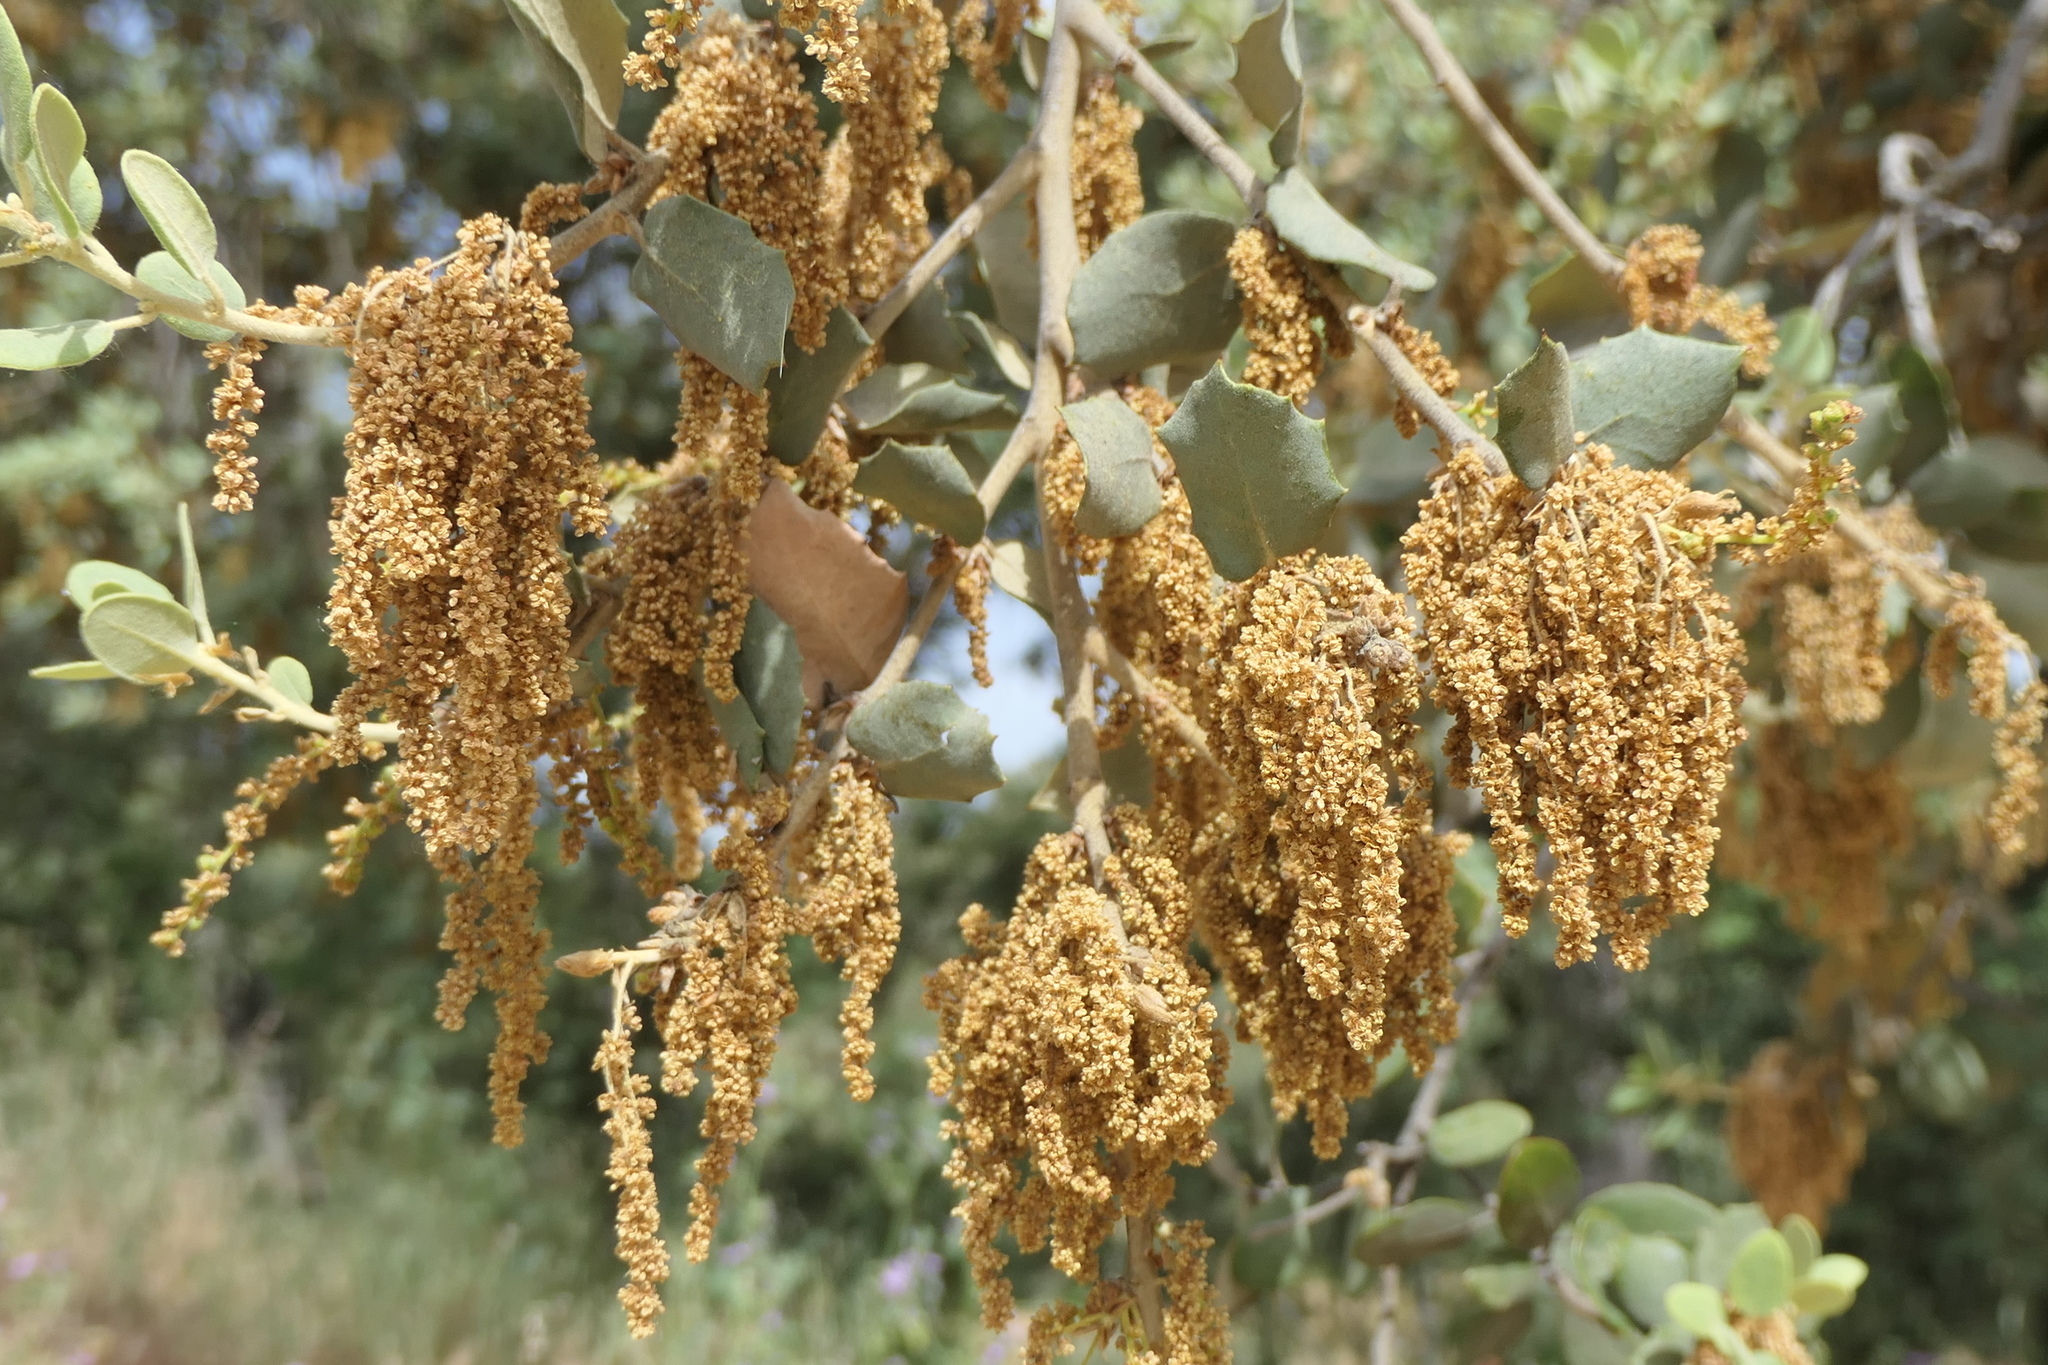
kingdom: Plantae
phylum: Tracheophyta
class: Magnoliopsida
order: Fagales
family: Fagaceae
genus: Quercus
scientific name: Quercus rotundifolia
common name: Holm oak
